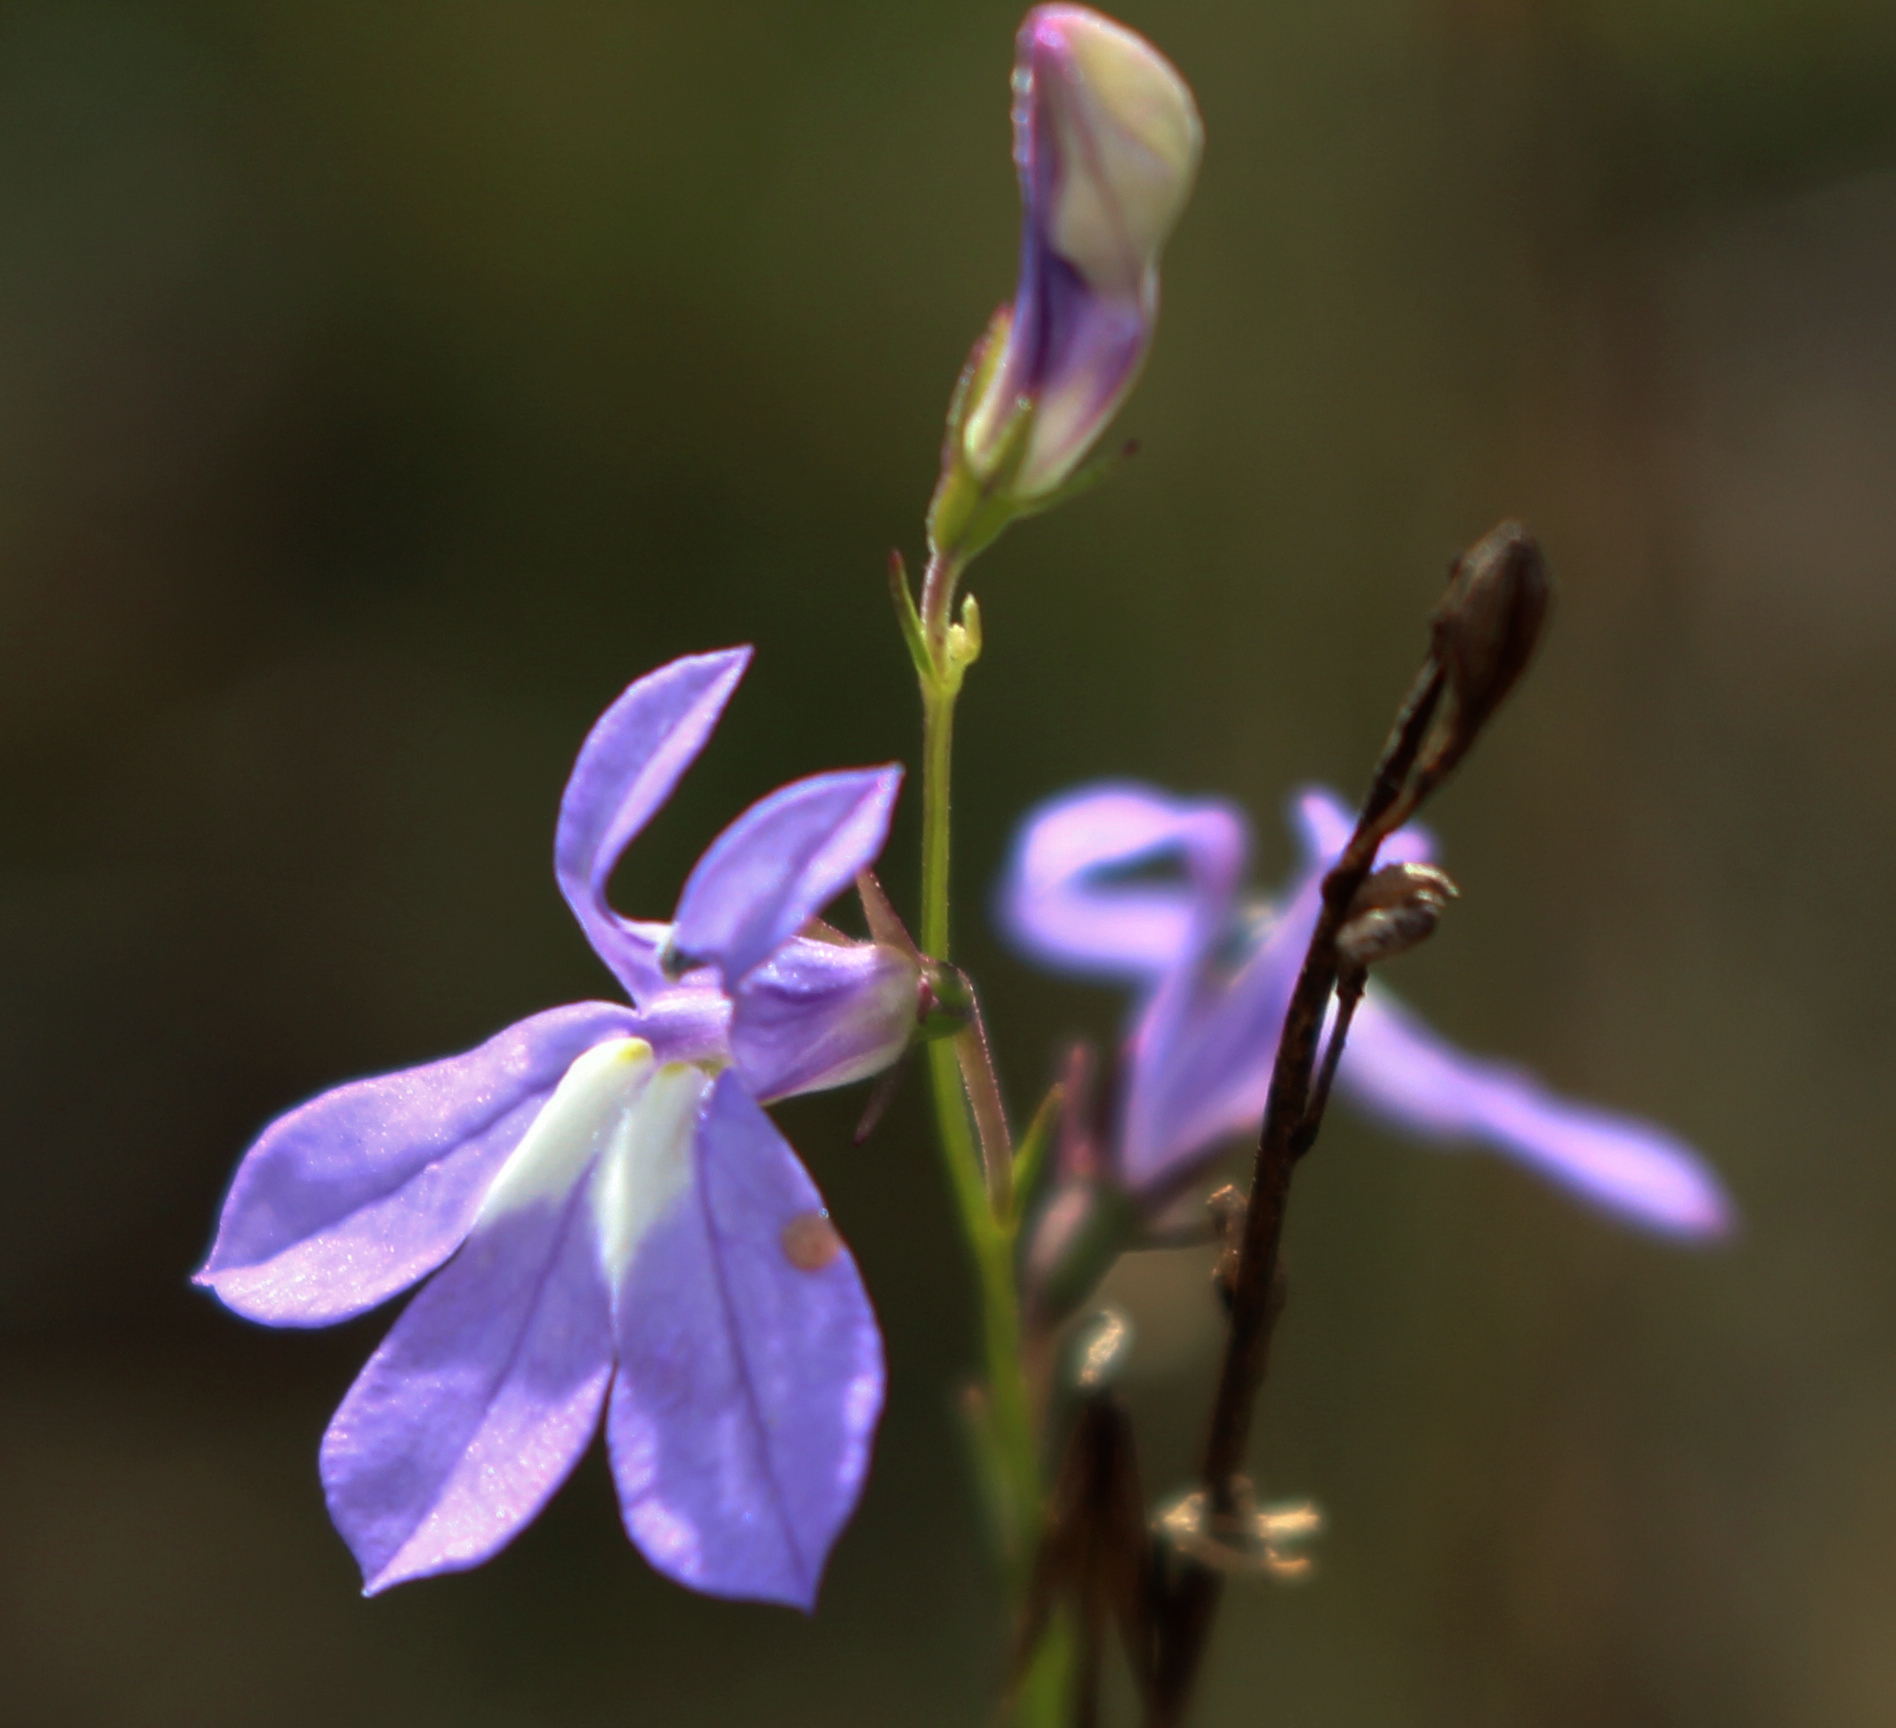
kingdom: Plantae
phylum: Tracheophyta
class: Magnoliopsida
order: Asterales
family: Campanulaceae
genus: Lobelia
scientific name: Lobelia kalmii
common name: Kalm's lobelia
